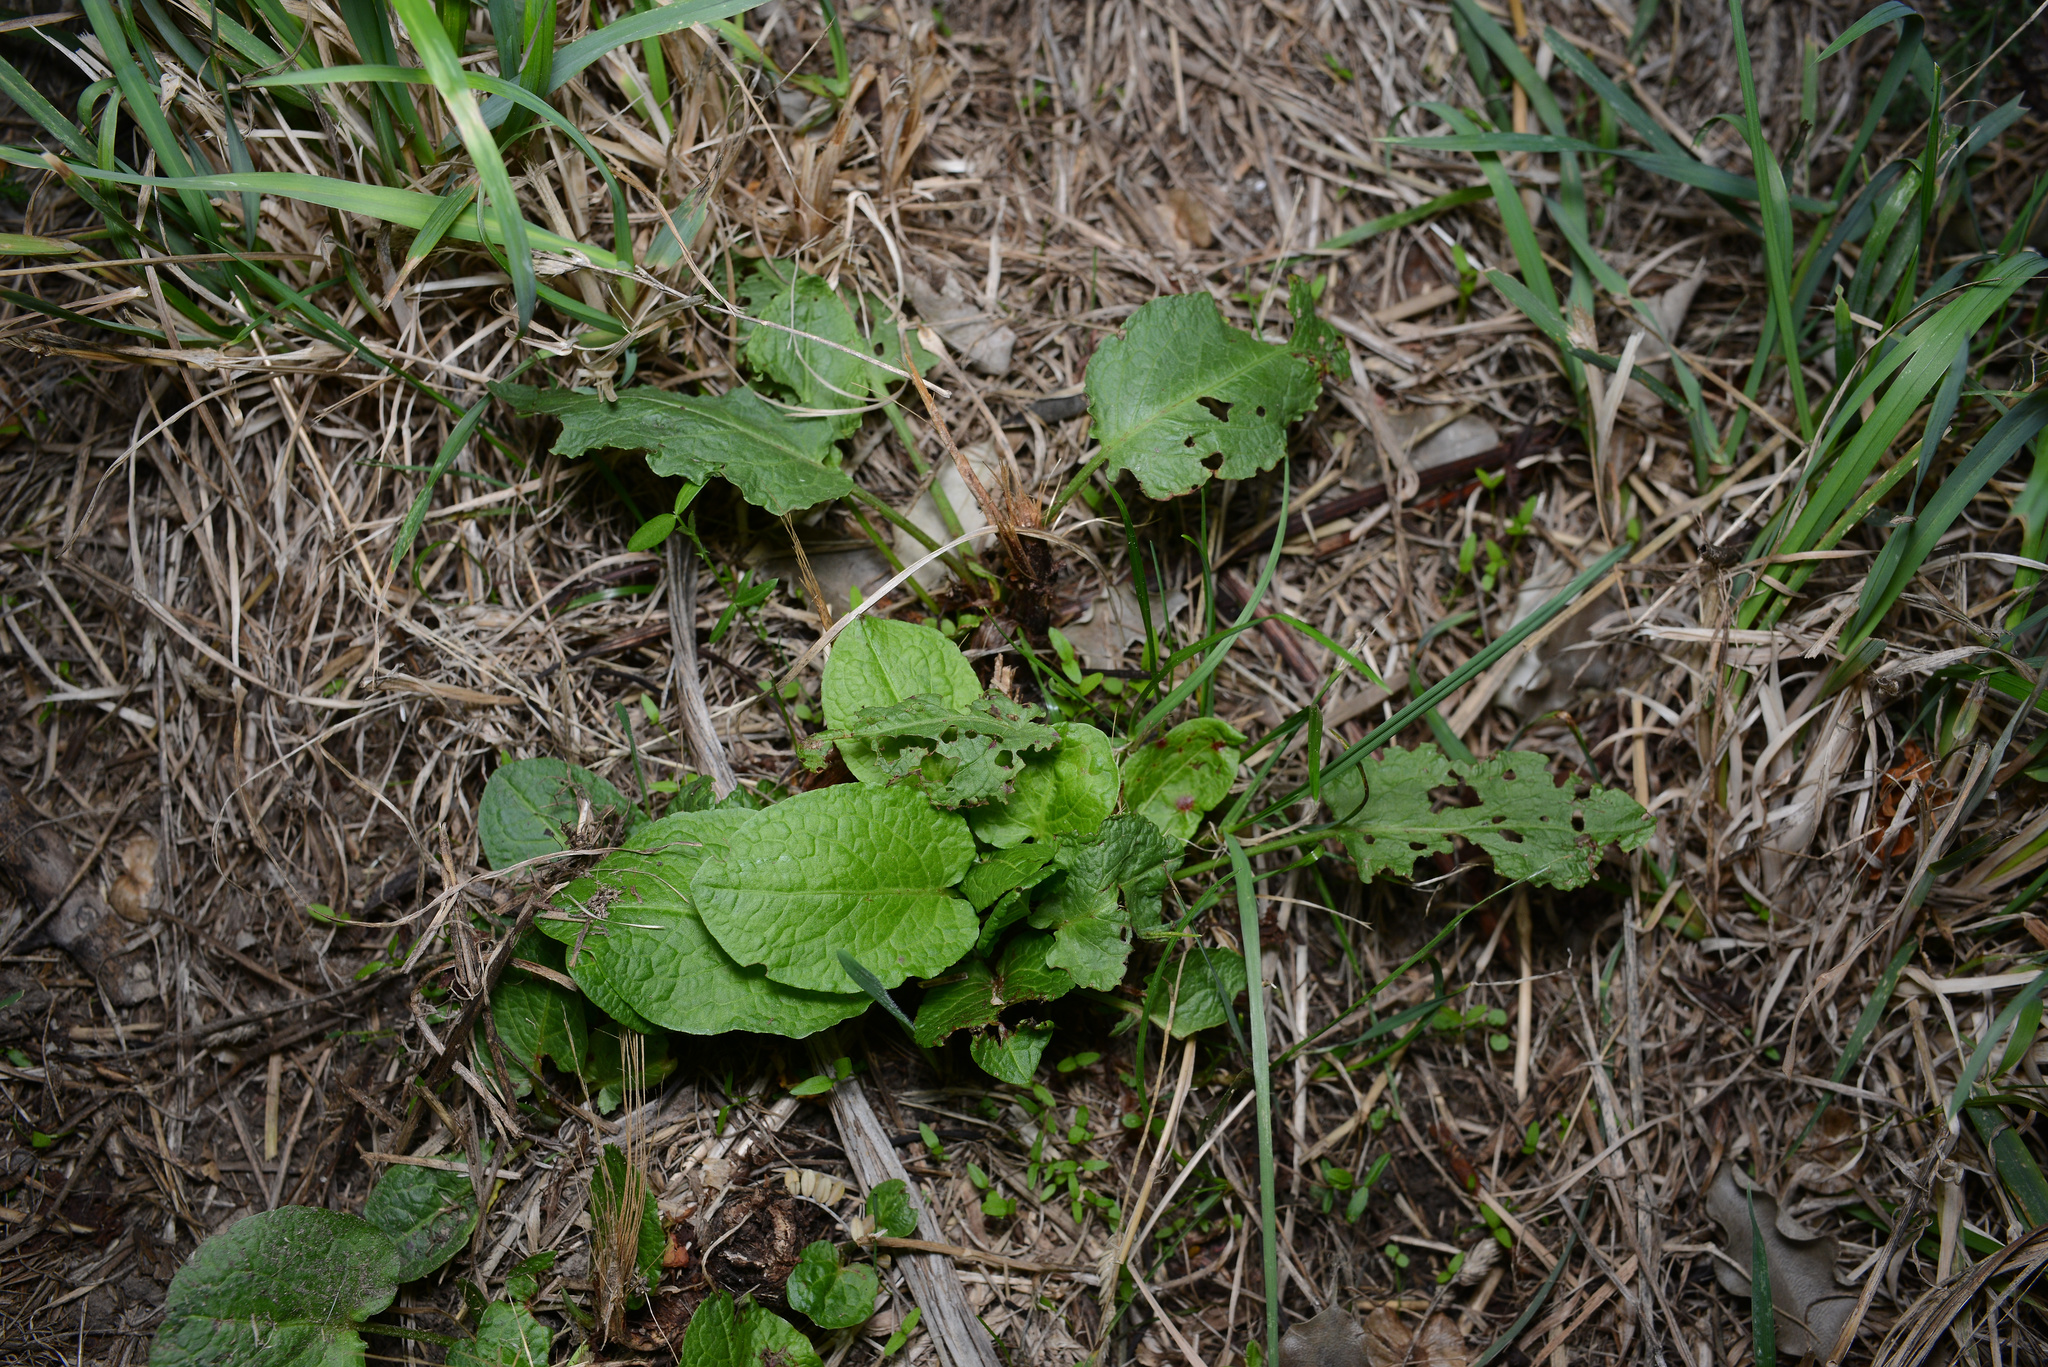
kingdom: Plantae
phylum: Tracheophyta
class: Magnoliopsida
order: Caryophyllales
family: Polygonaceae
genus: Rumex
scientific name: Rumex obtusifolius
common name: Bitter dock
